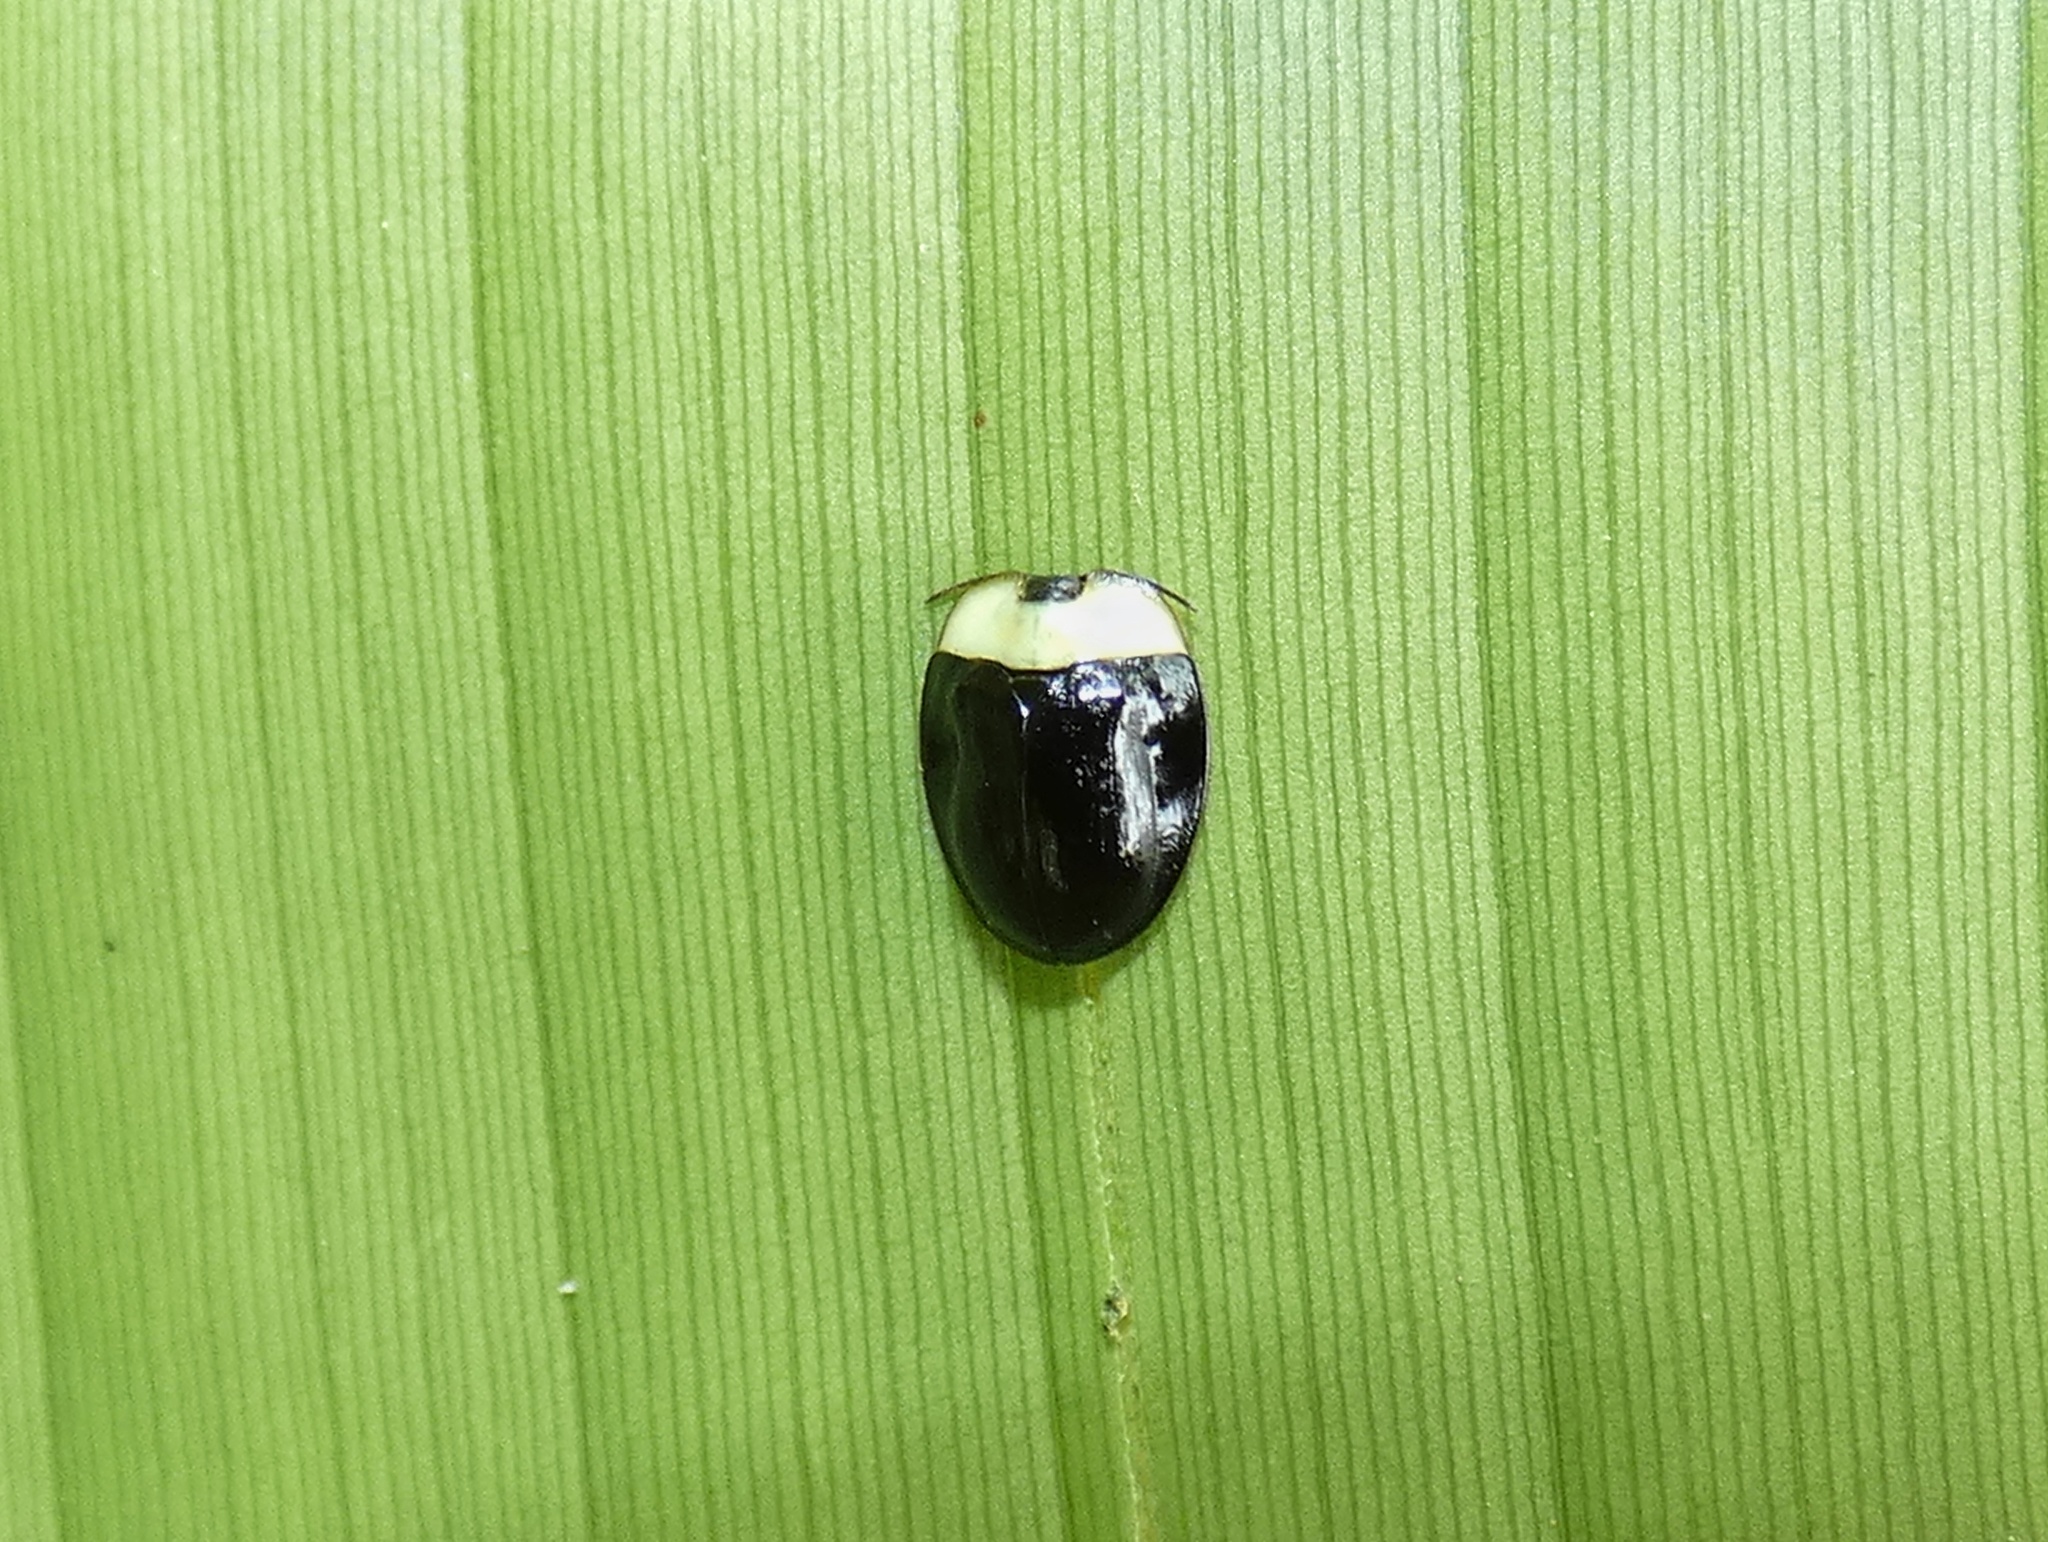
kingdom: Animalia
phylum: Arthropoda
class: Insecta
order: Coleoptera
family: Chrysomelidae
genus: Imatidium
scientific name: Imatidium thoracicum
